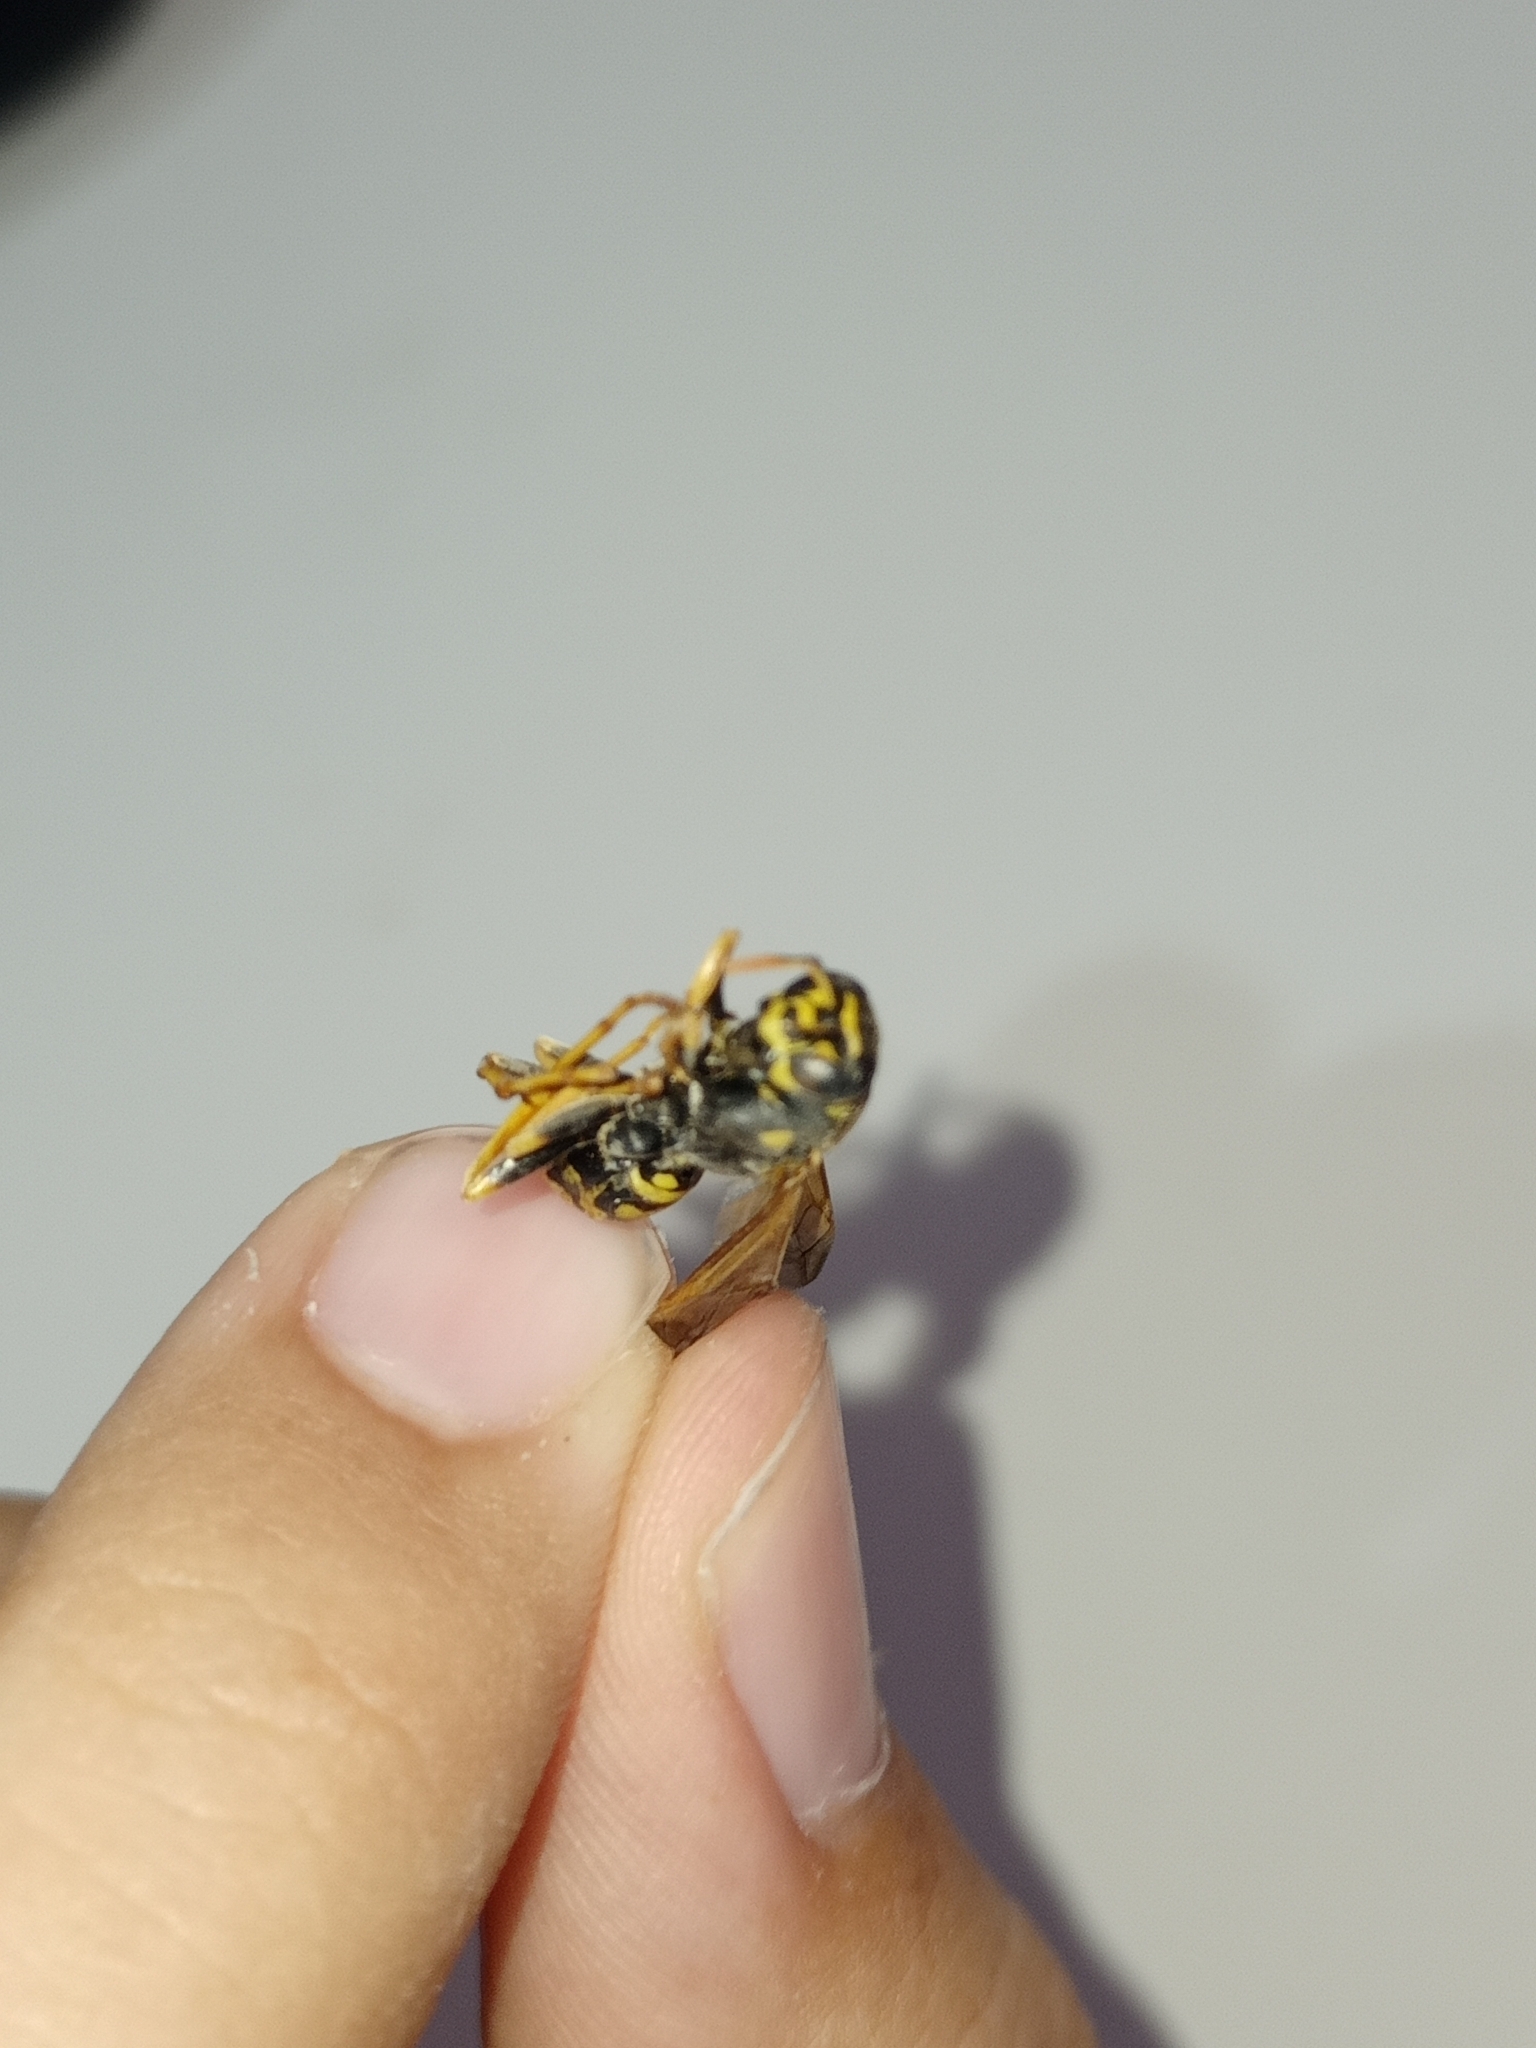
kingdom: Animalia
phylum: Arthropoda
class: Insecta
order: Hymenoptera
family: Eumenidae
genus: Polistes
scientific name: Polistes dominula
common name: Paper wasp
